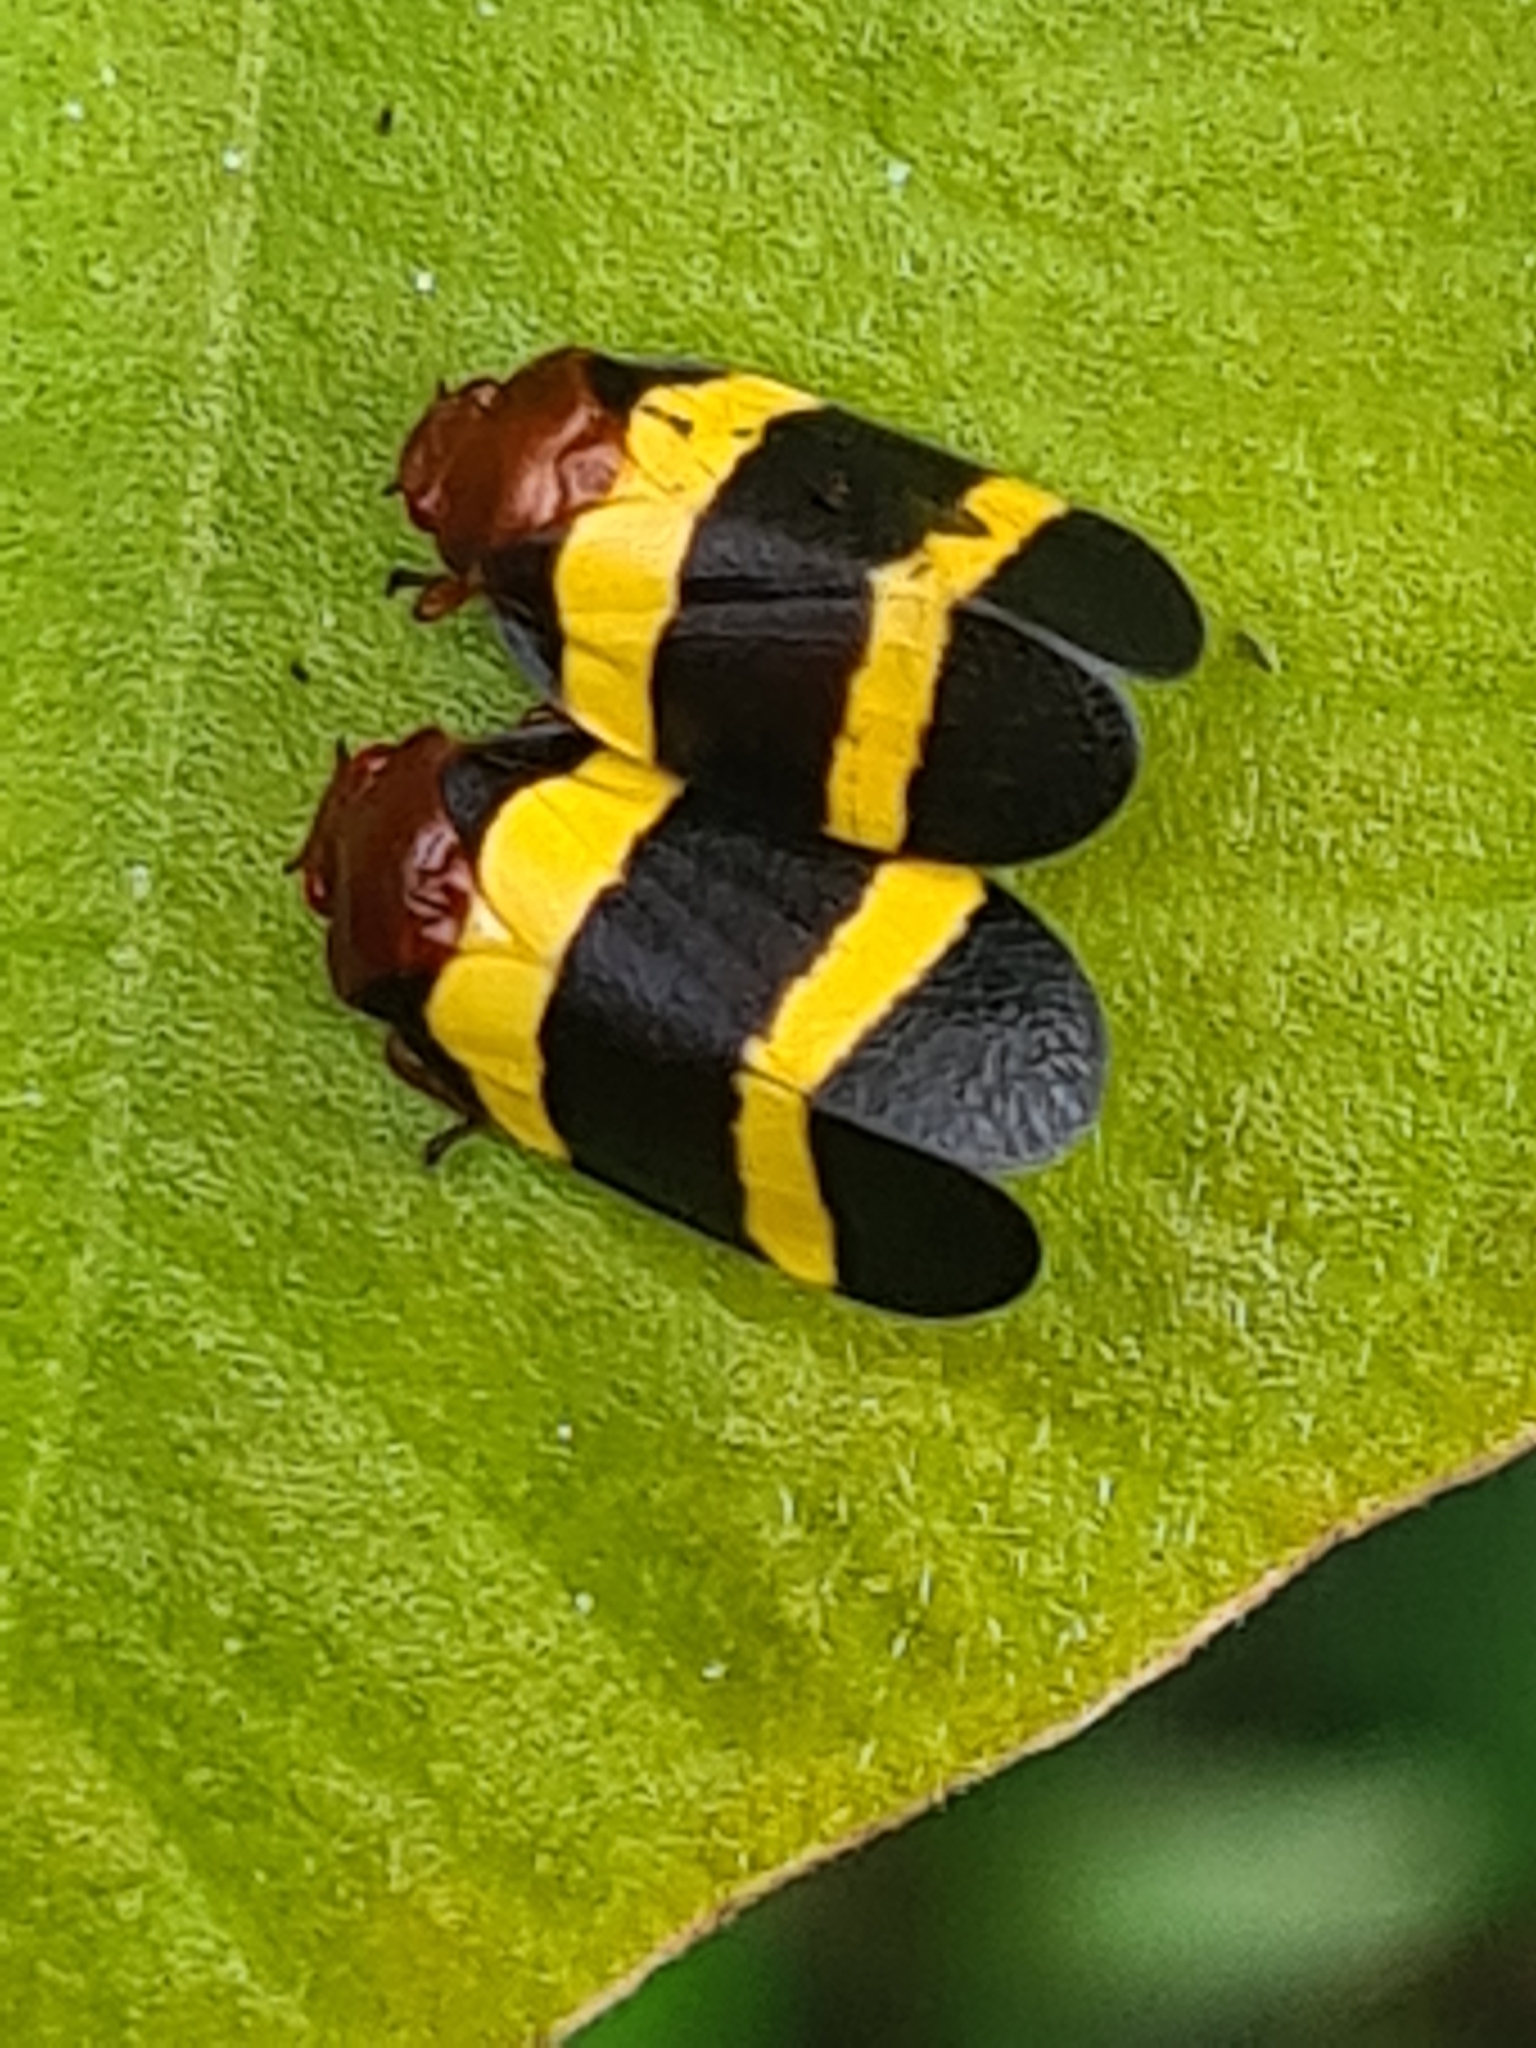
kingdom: Animalia
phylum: Arthropoda
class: Insecta
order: Hemiptera
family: Cercopidae
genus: Sphenorhina
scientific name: Sphenorhina rubra
